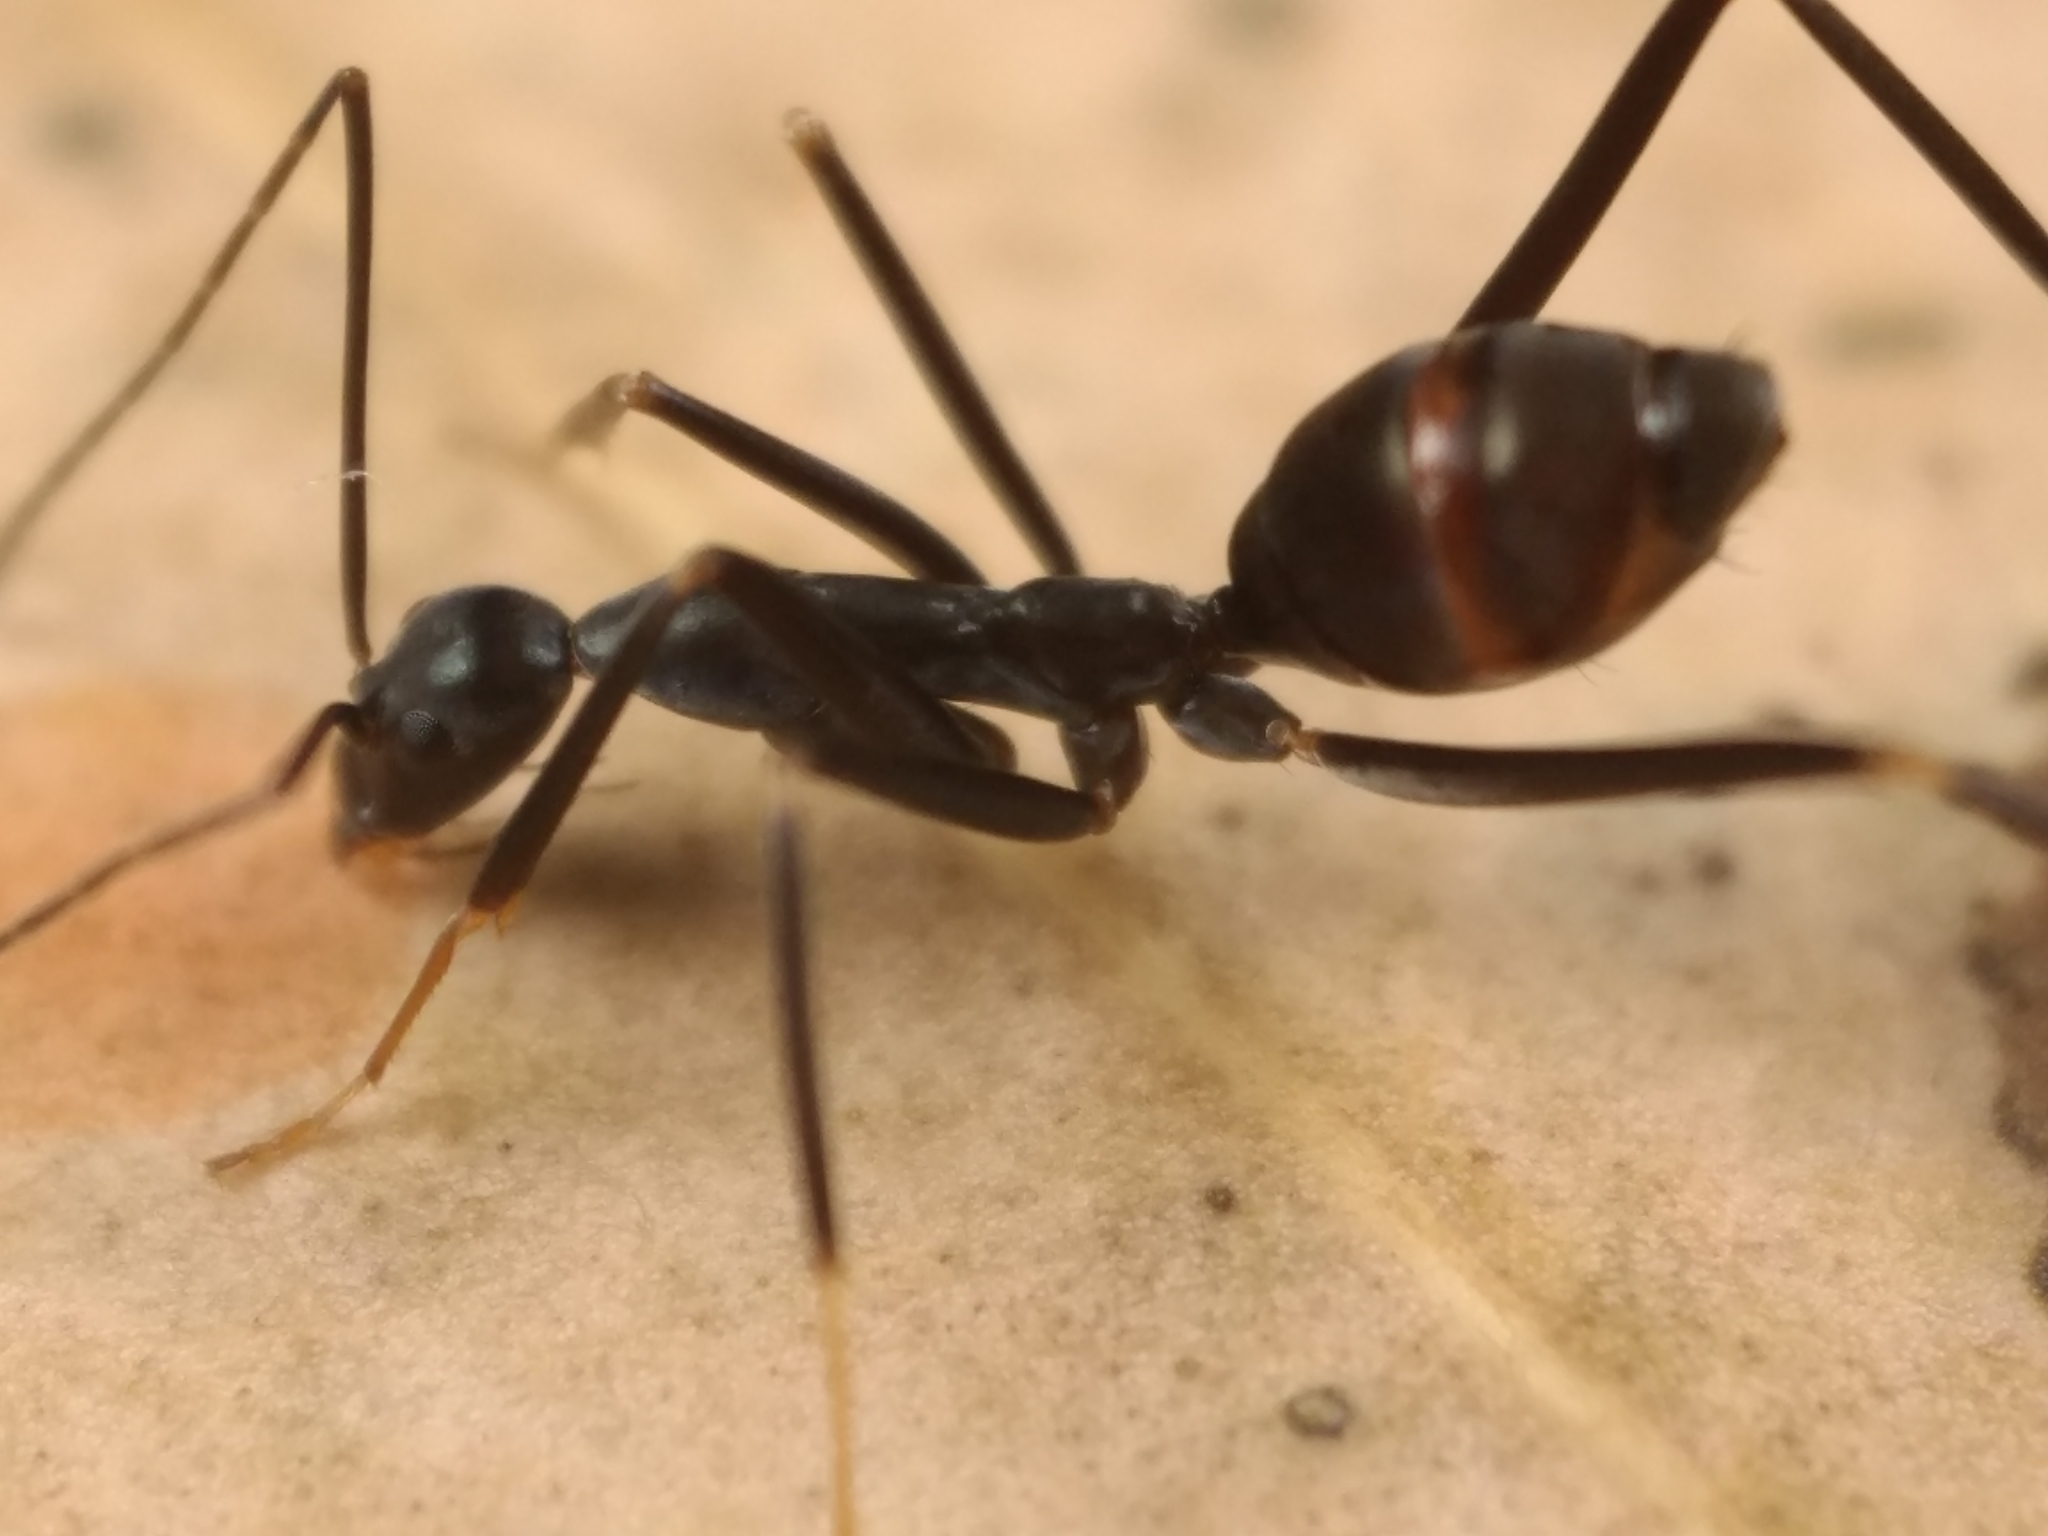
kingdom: Animalia
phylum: Arthropoda
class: Insecta
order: Hymenoptera
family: Formicidae
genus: Leptomyrmex
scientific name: Leptomyrmex mjobergi
